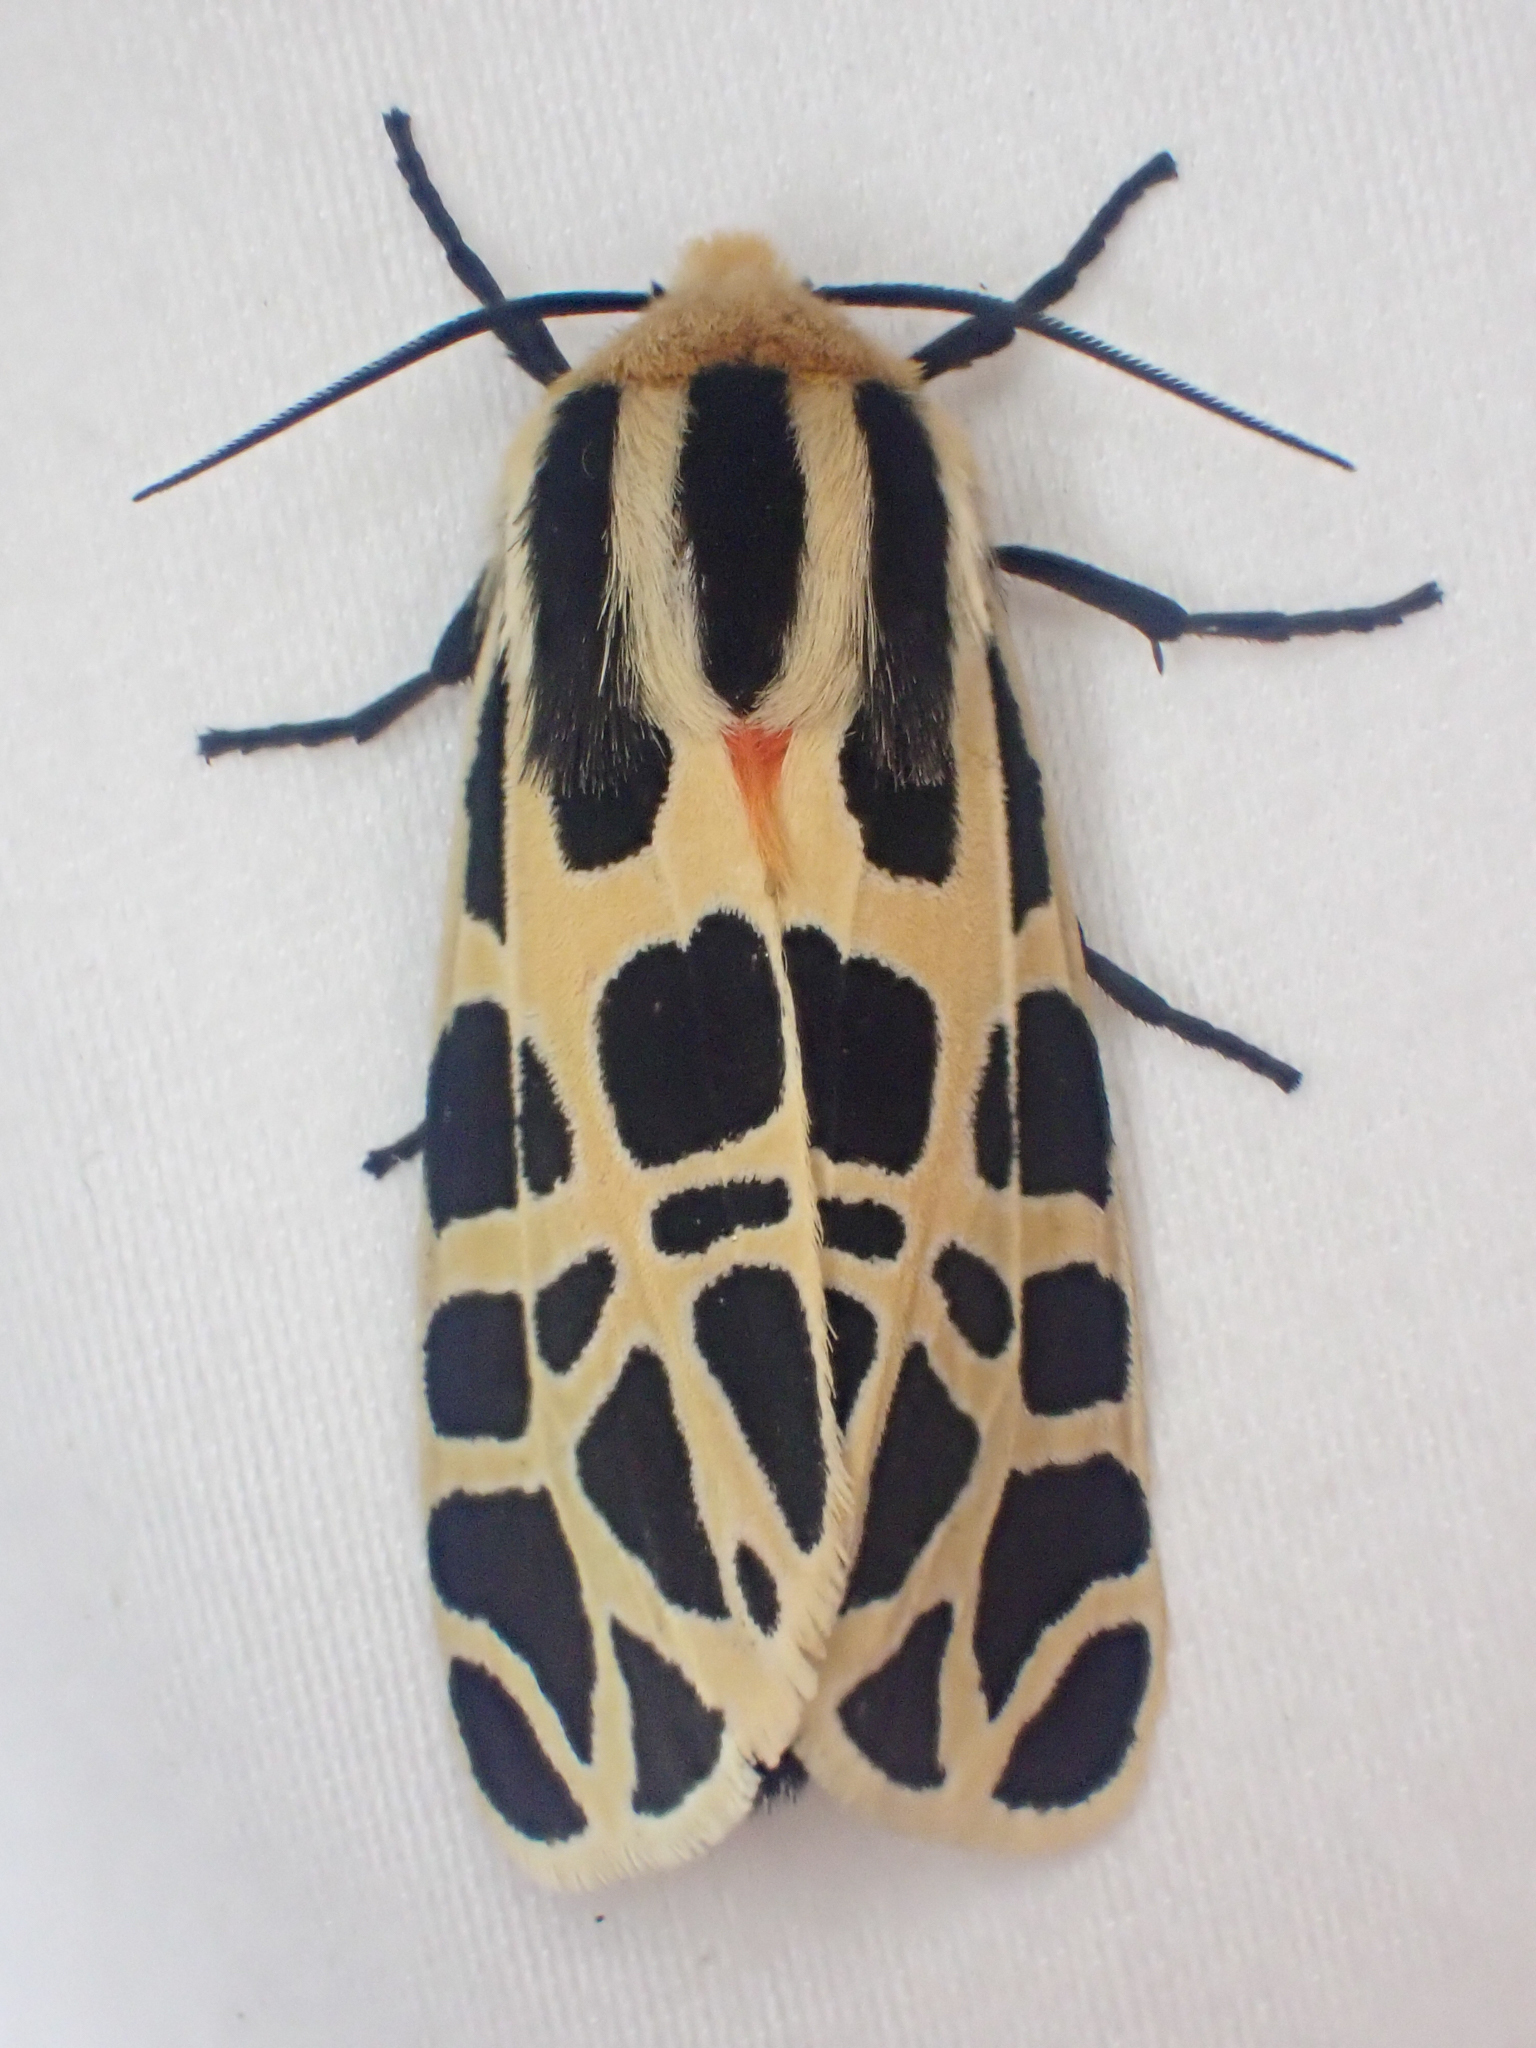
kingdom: Animalia
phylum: Arthropoda
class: Insecta
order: Lepidoptera
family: Erebidae
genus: Apantesis
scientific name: Apantesis
